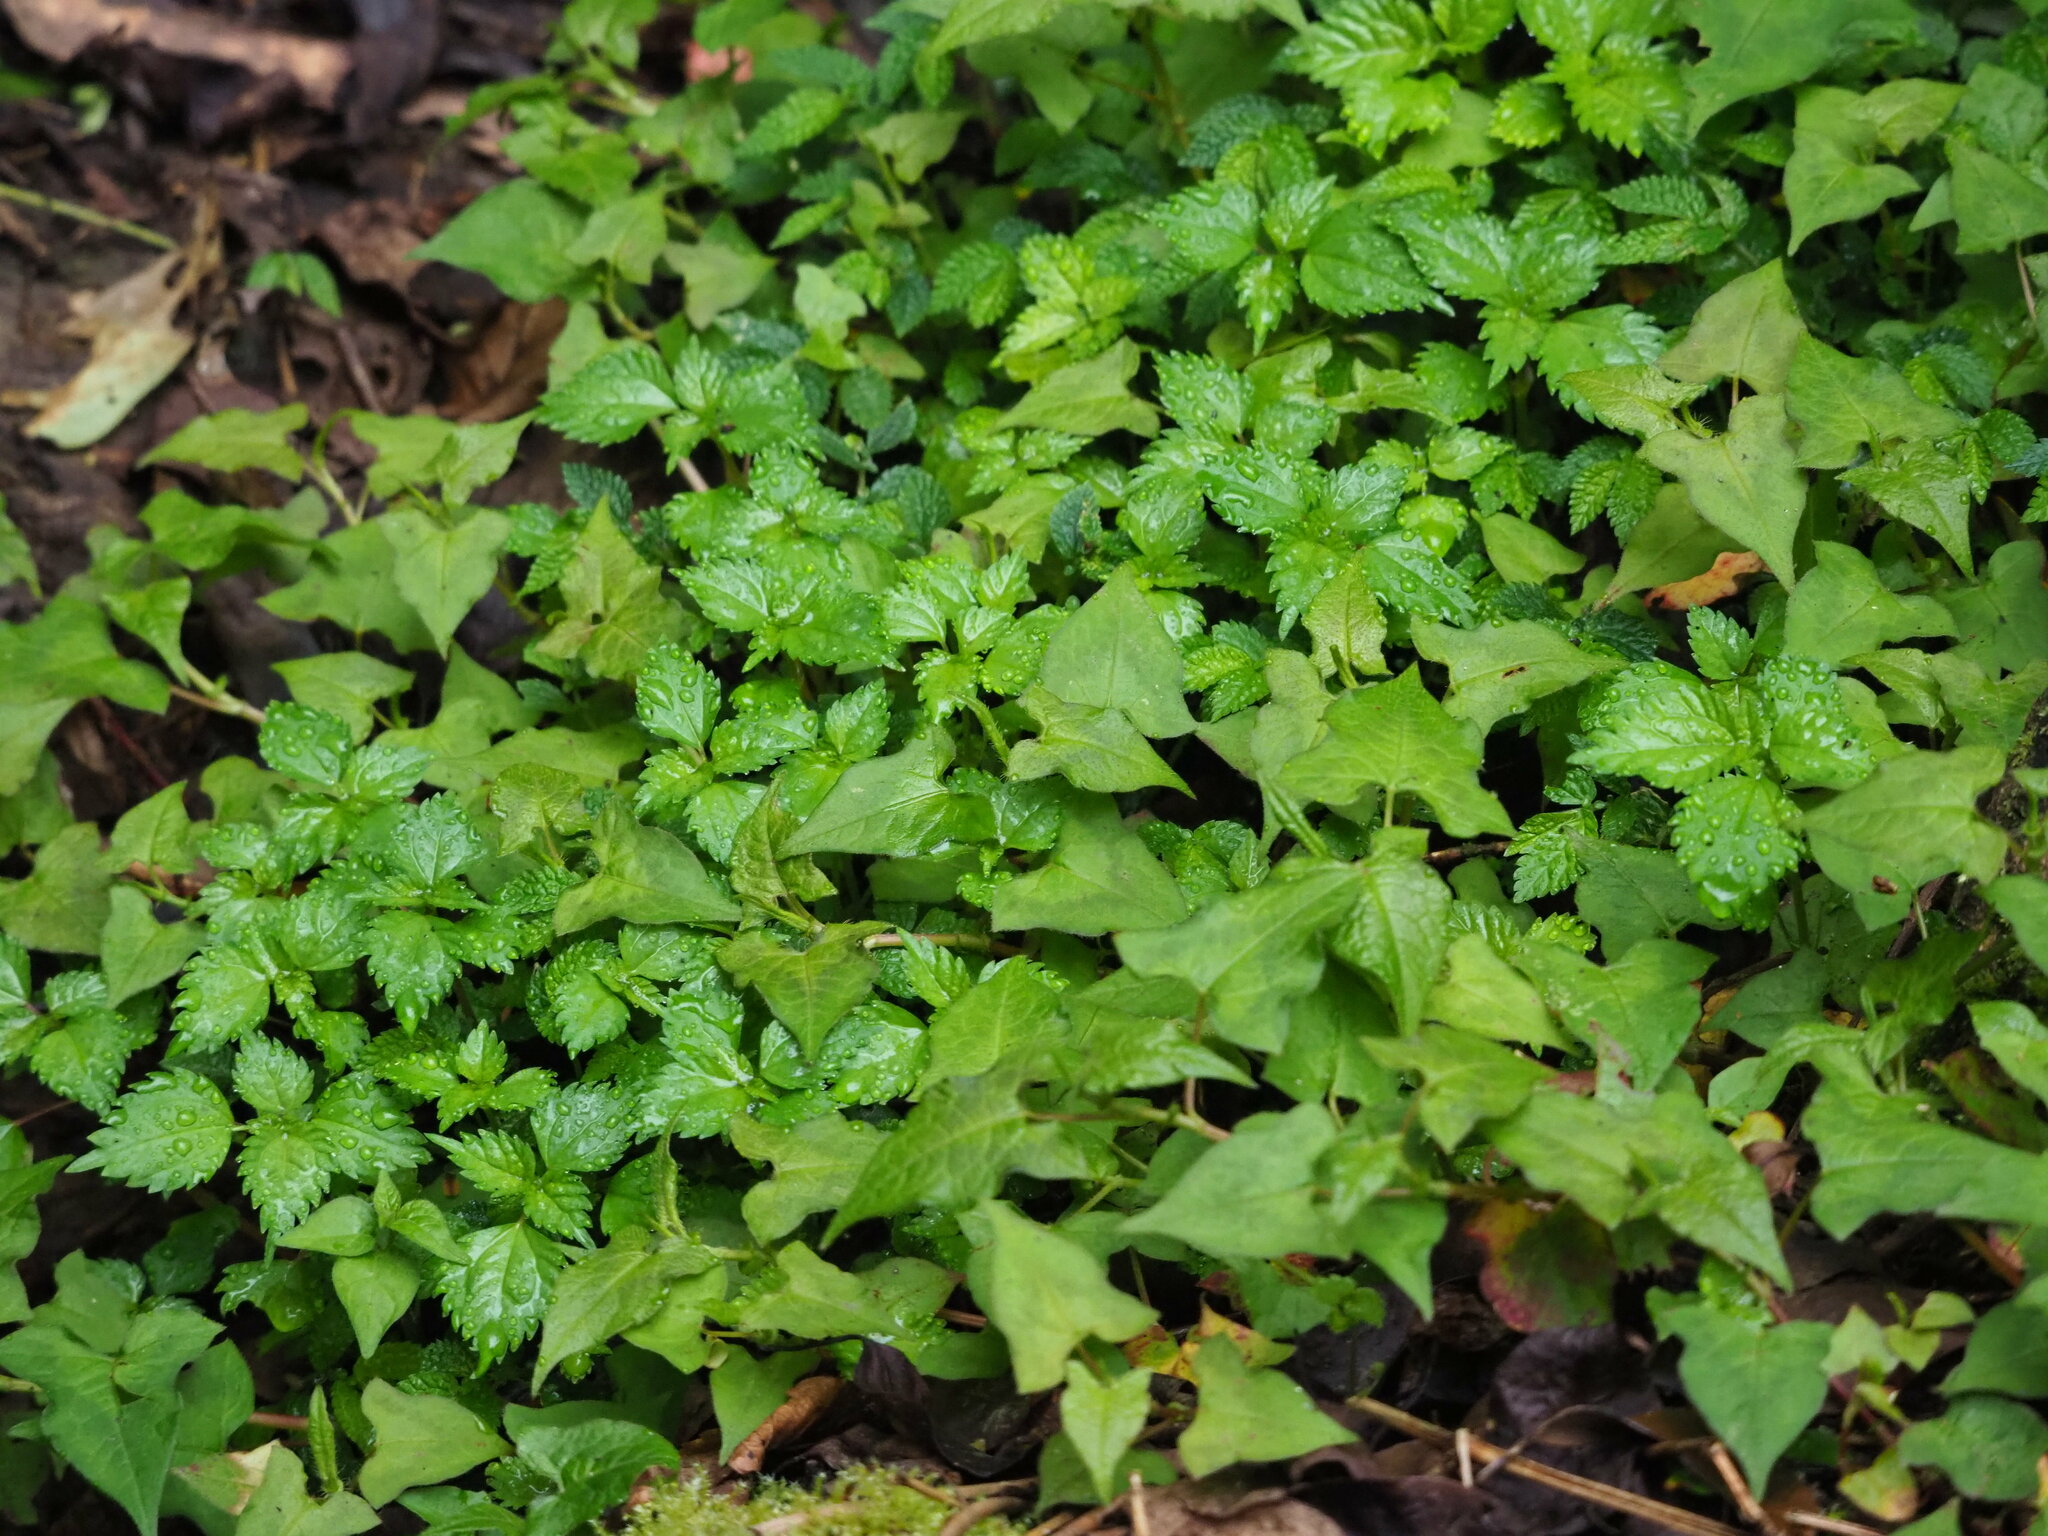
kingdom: Plantae
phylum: Tracheophyta
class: Magnoliopsida
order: Rosales
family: Urticaceae
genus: Nanocnide
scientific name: Nanocnide japonica
